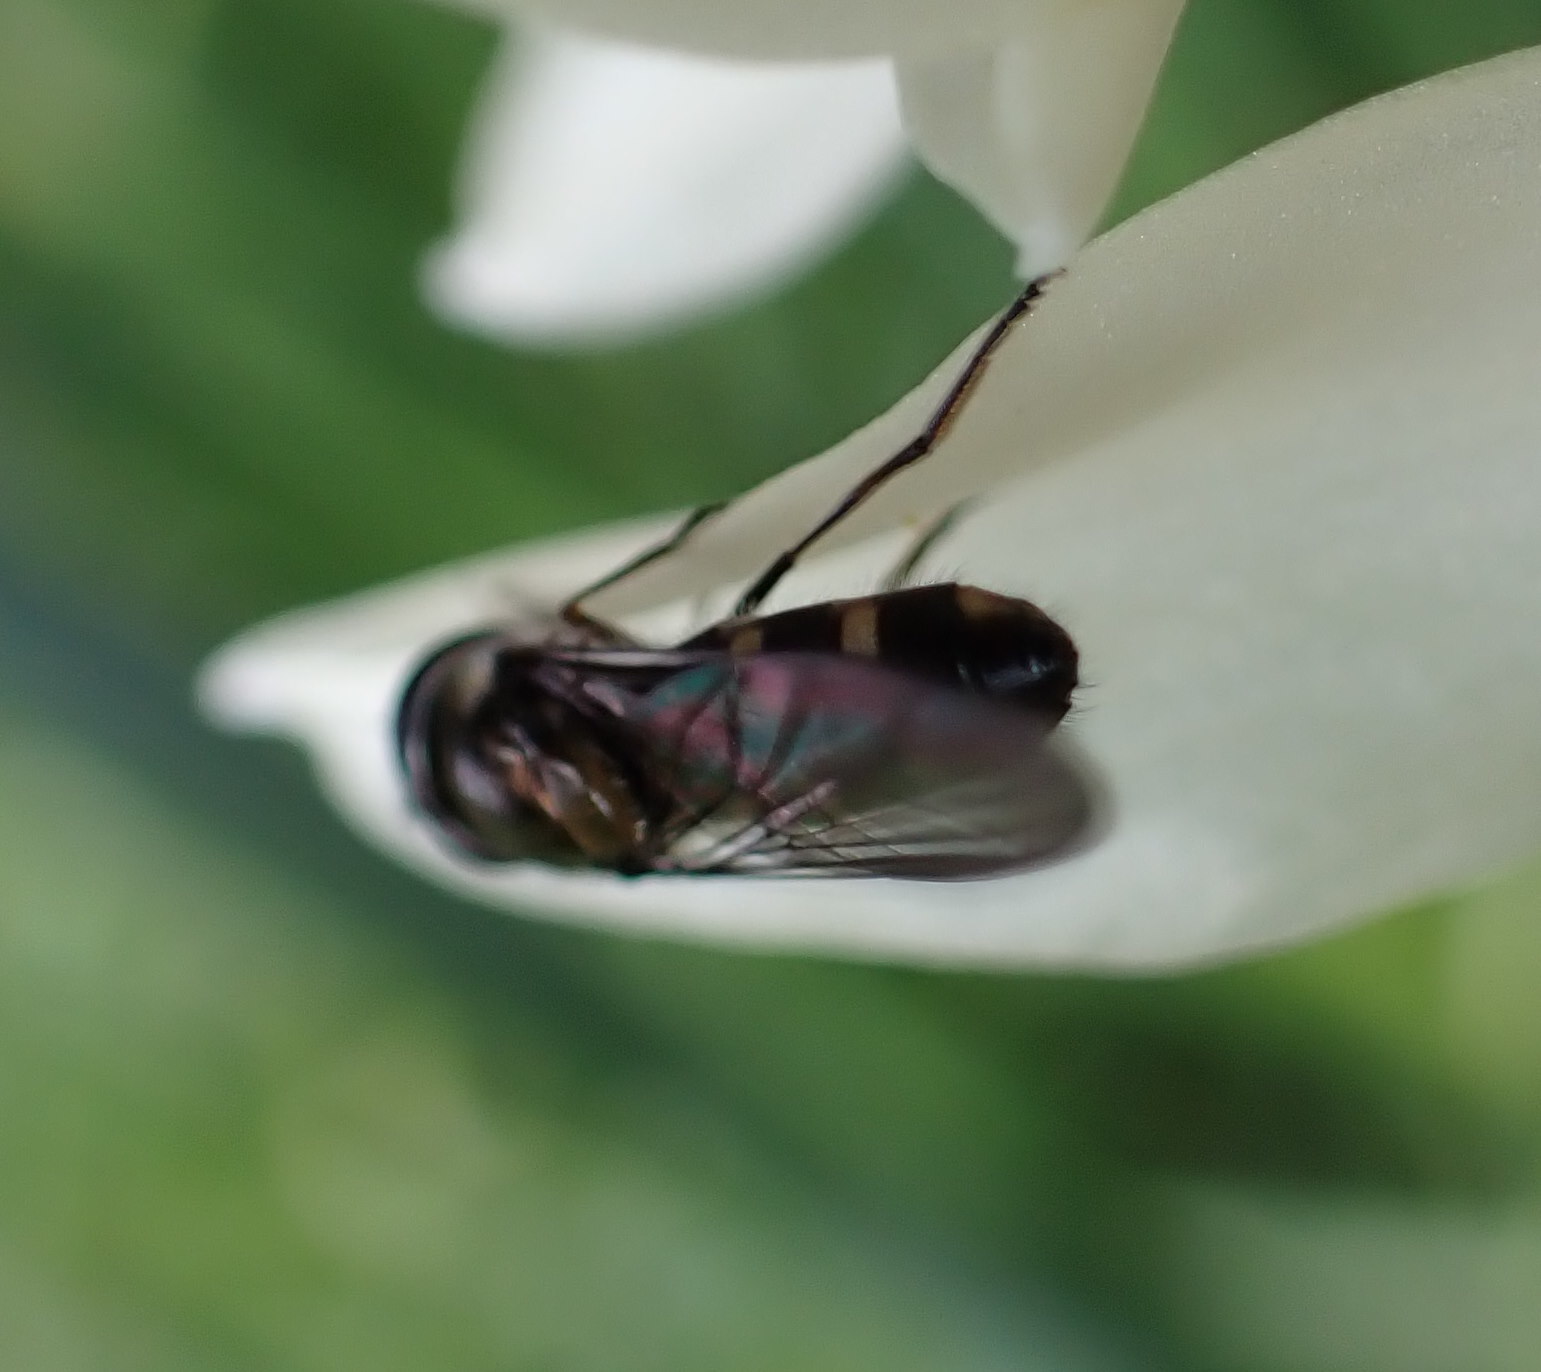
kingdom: Animalia
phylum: Arthropoda
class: Insecta
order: Diptera
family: Syrphidae
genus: Melangyna
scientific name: Melangyna novaezelandiae
